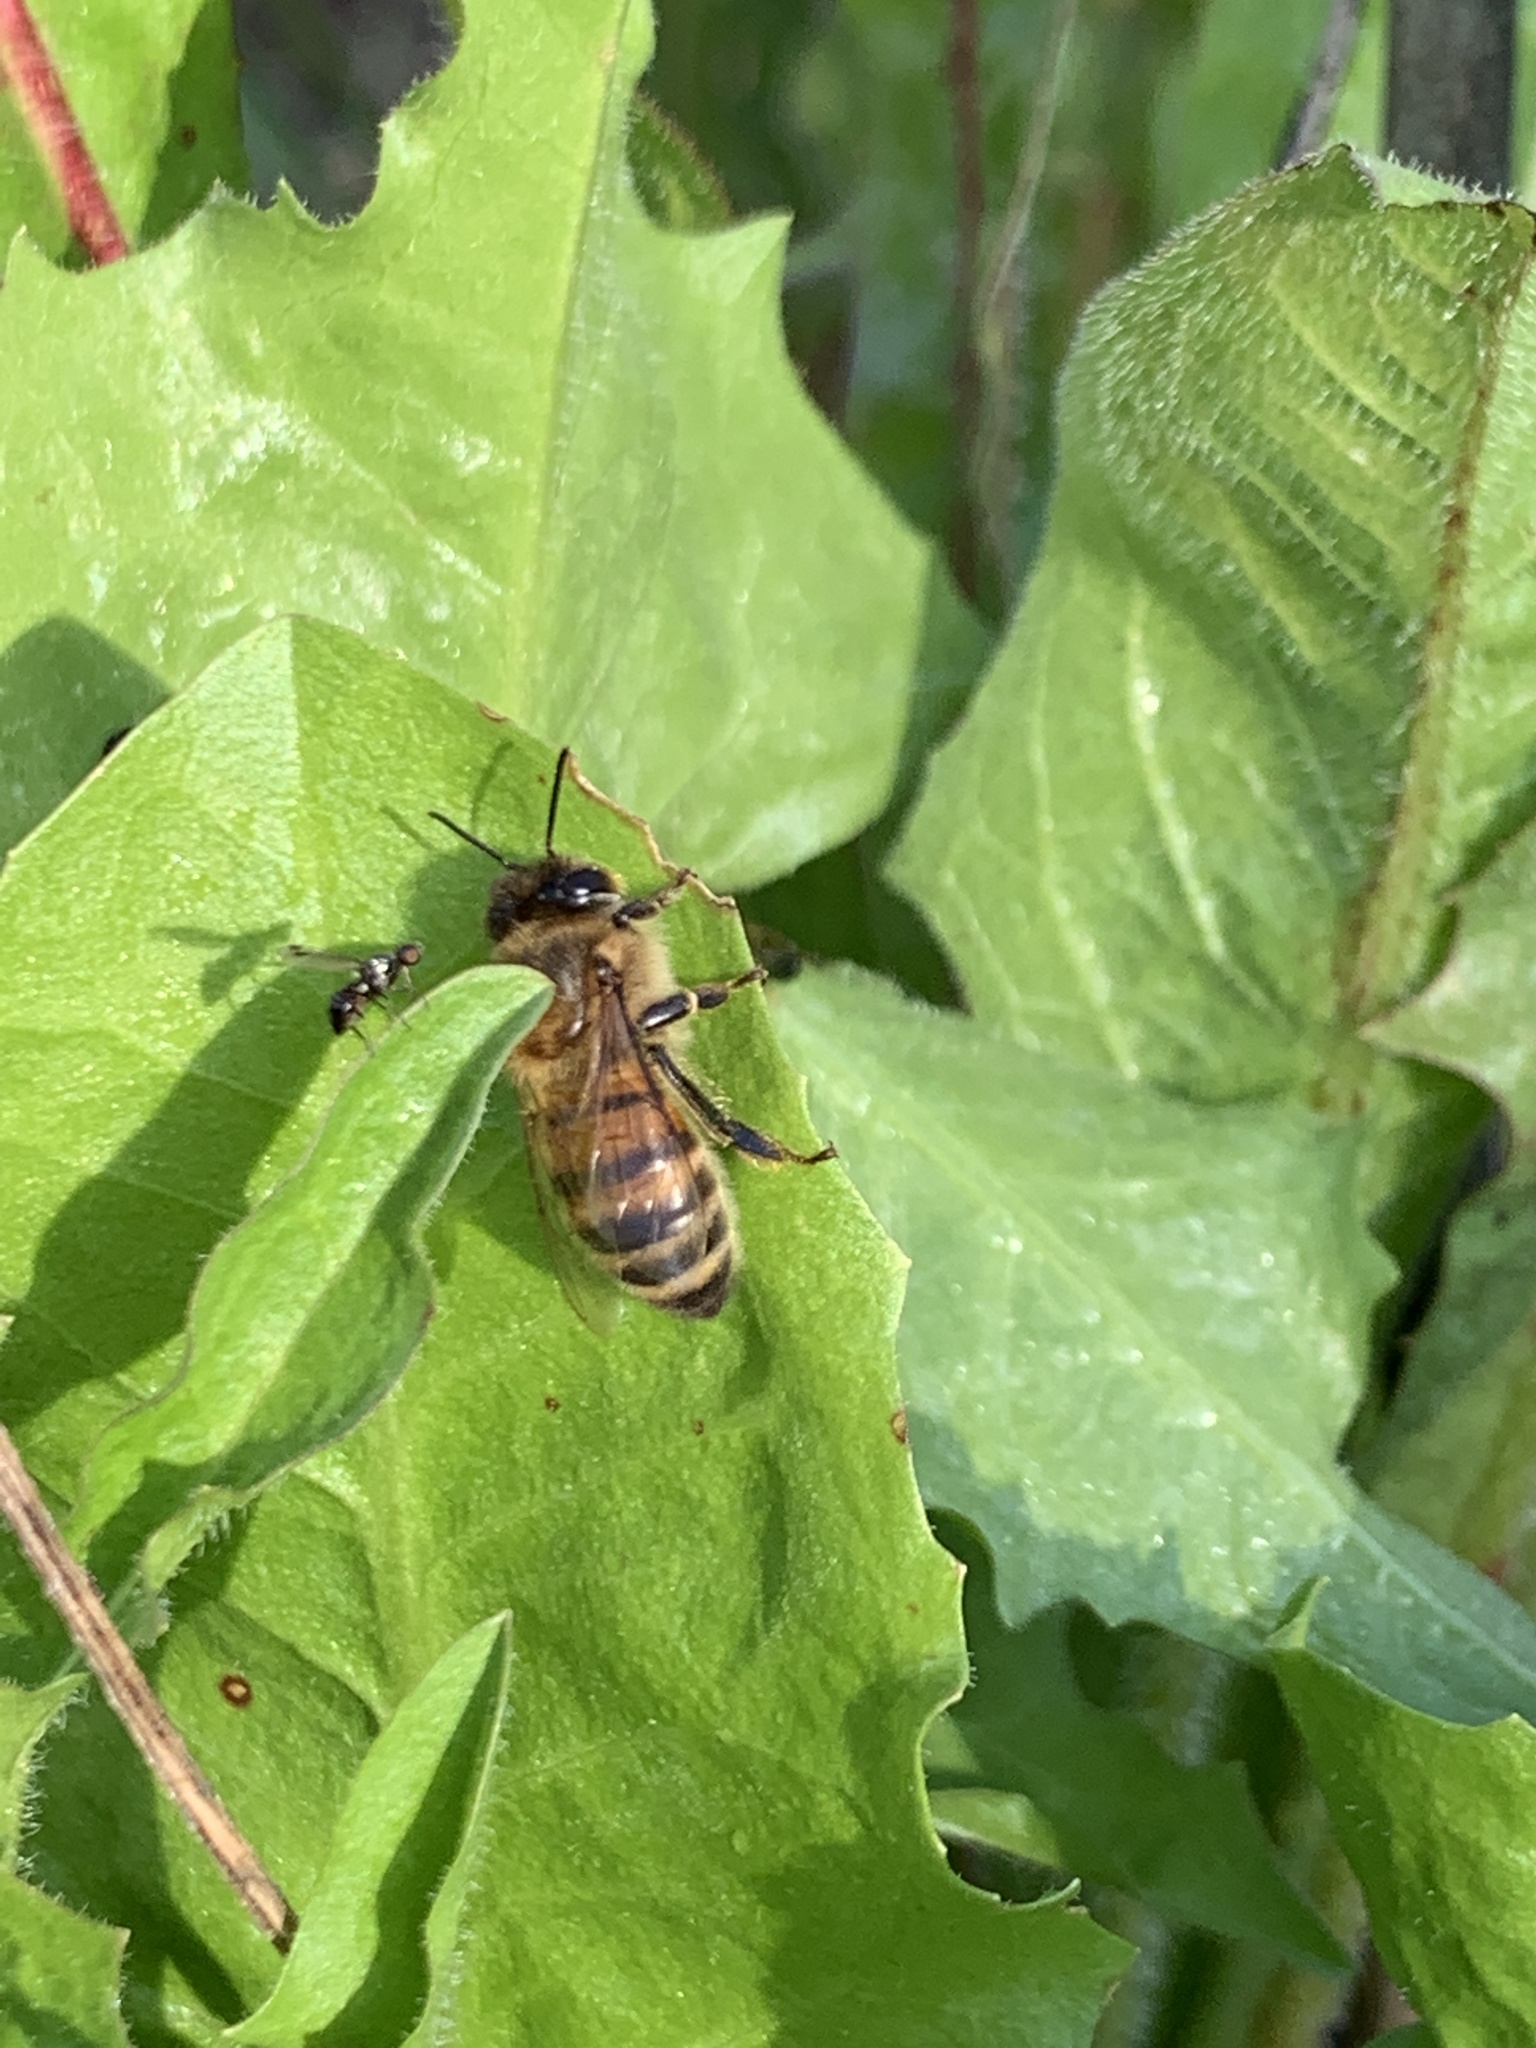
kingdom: Animalia
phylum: Arthropoda
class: Insecta
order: Hymenoptera
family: Apidae
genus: Apis
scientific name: Apis mellifera
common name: Honey bee
